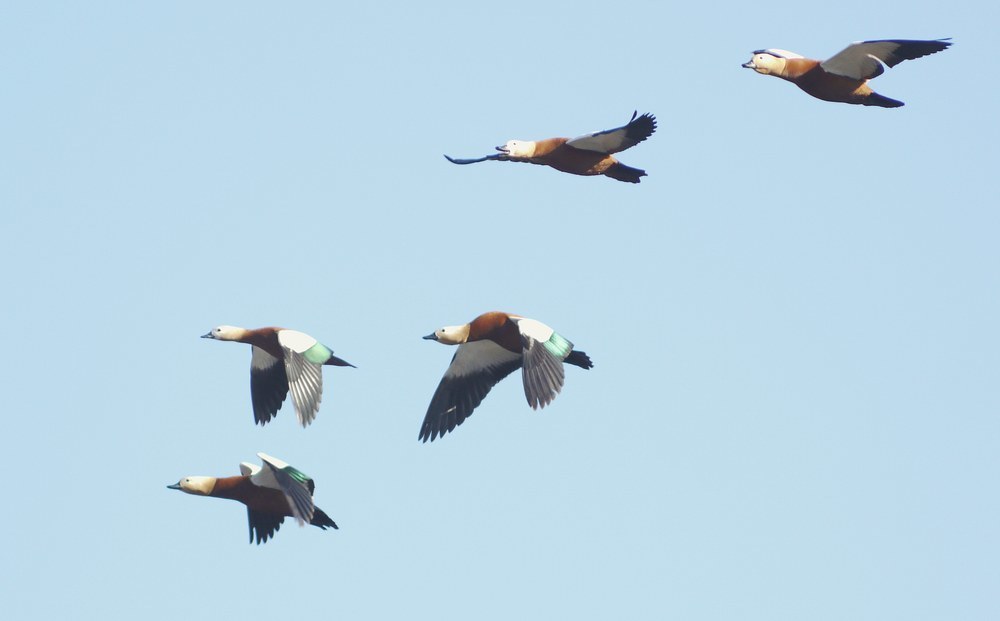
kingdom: Animalia
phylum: Chordata
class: Aves
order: Anseriformes
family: Anatidae
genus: Tadorna
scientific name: Tadorna ferruginea
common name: Ruddy shelduck
